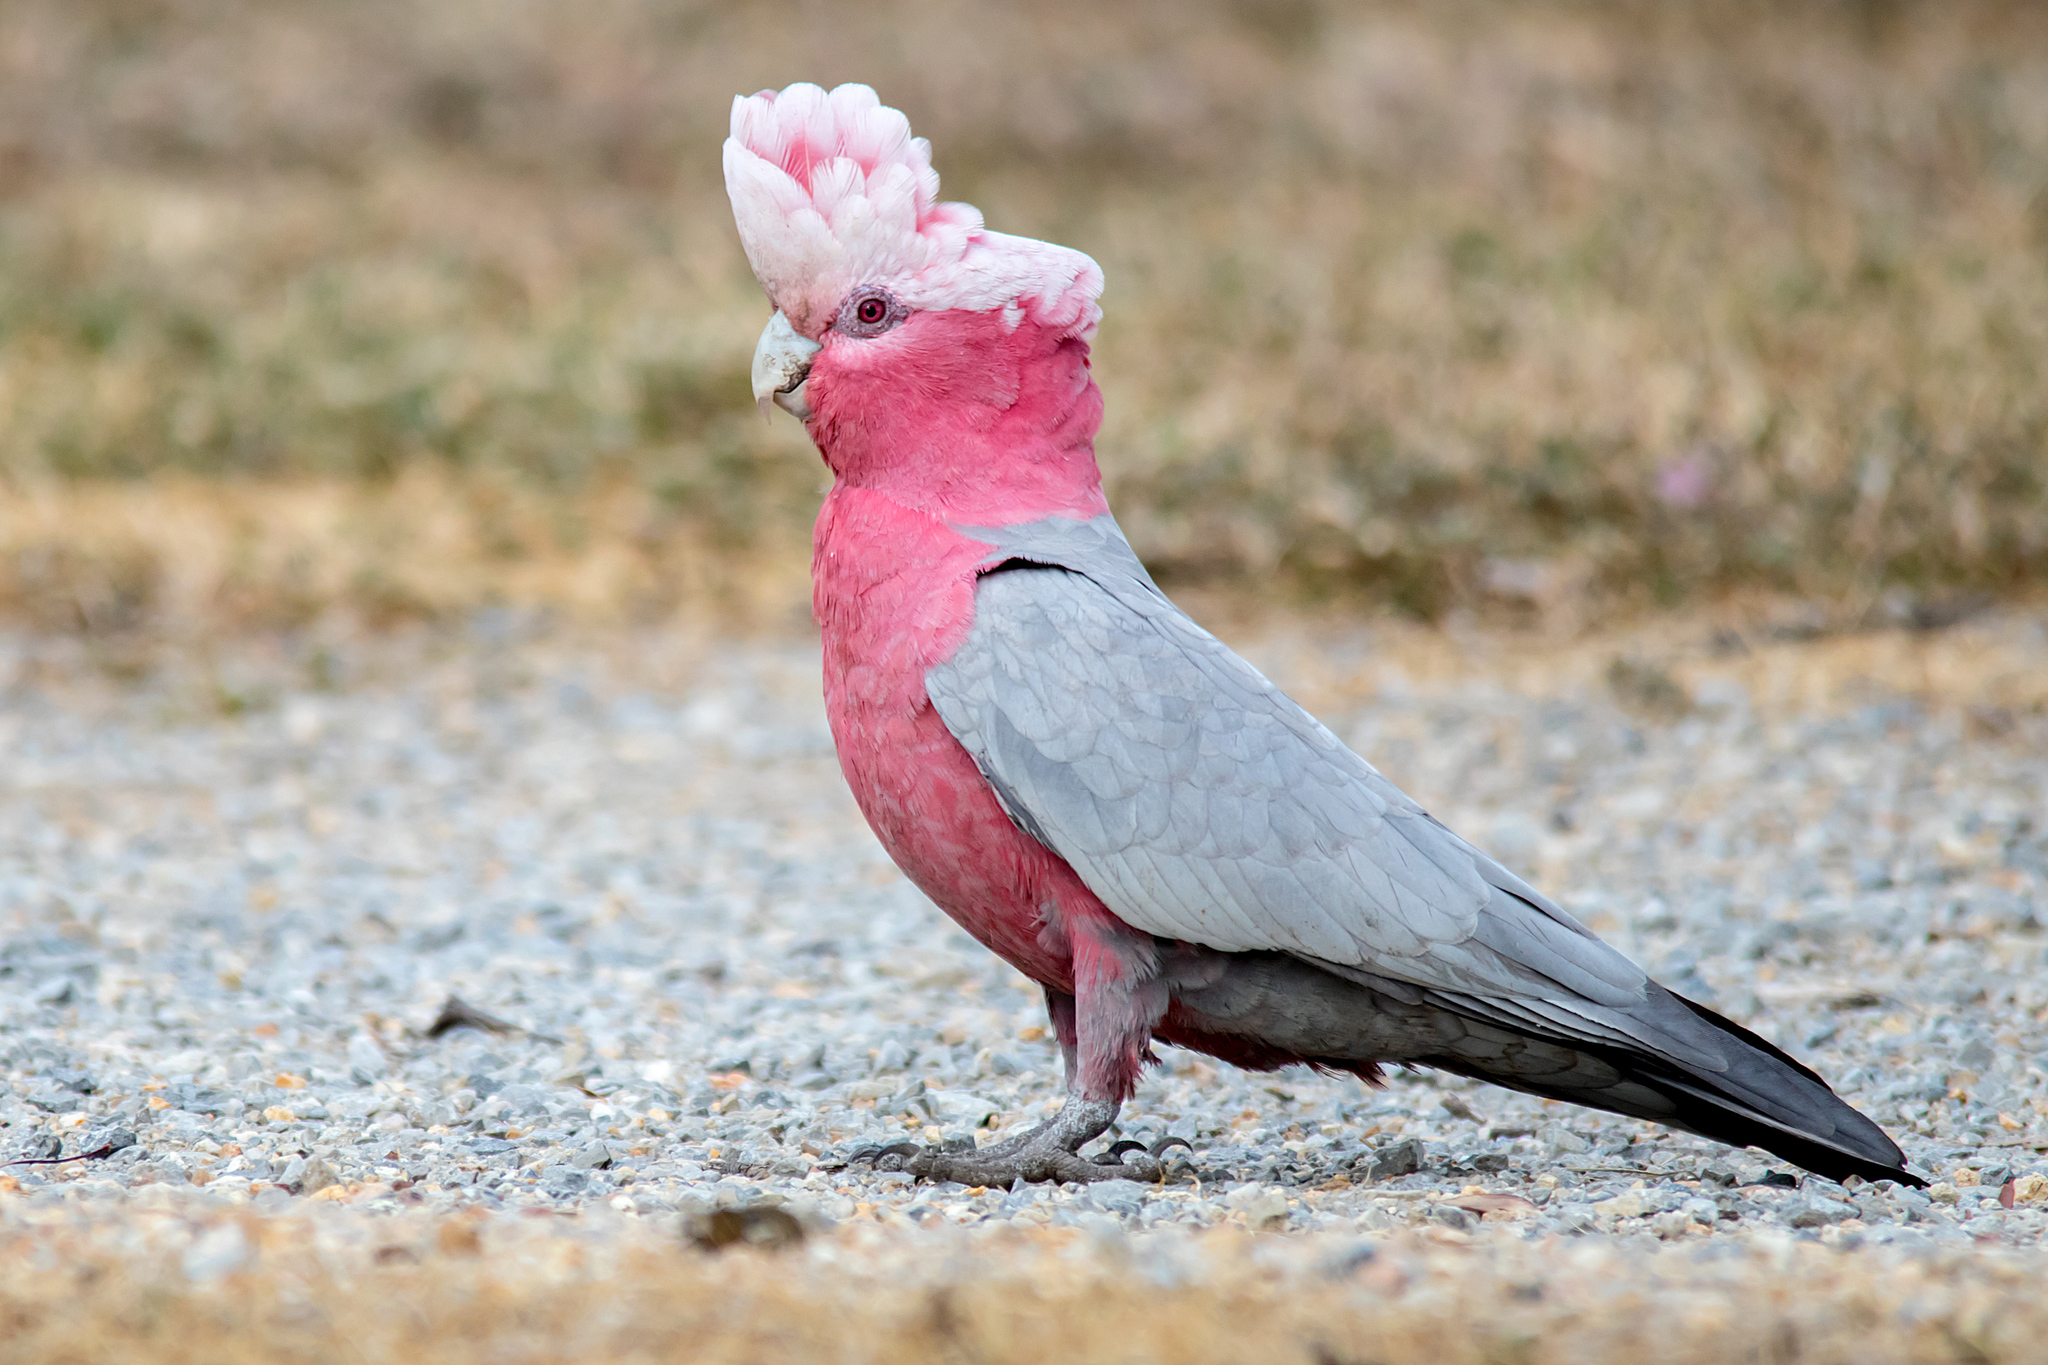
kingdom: Animalia
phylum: Chordata
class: Aves
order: Psittaciformes
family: Psittacidae
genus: Eolophus
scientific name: Eolophus roseicapilla
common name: Galah
